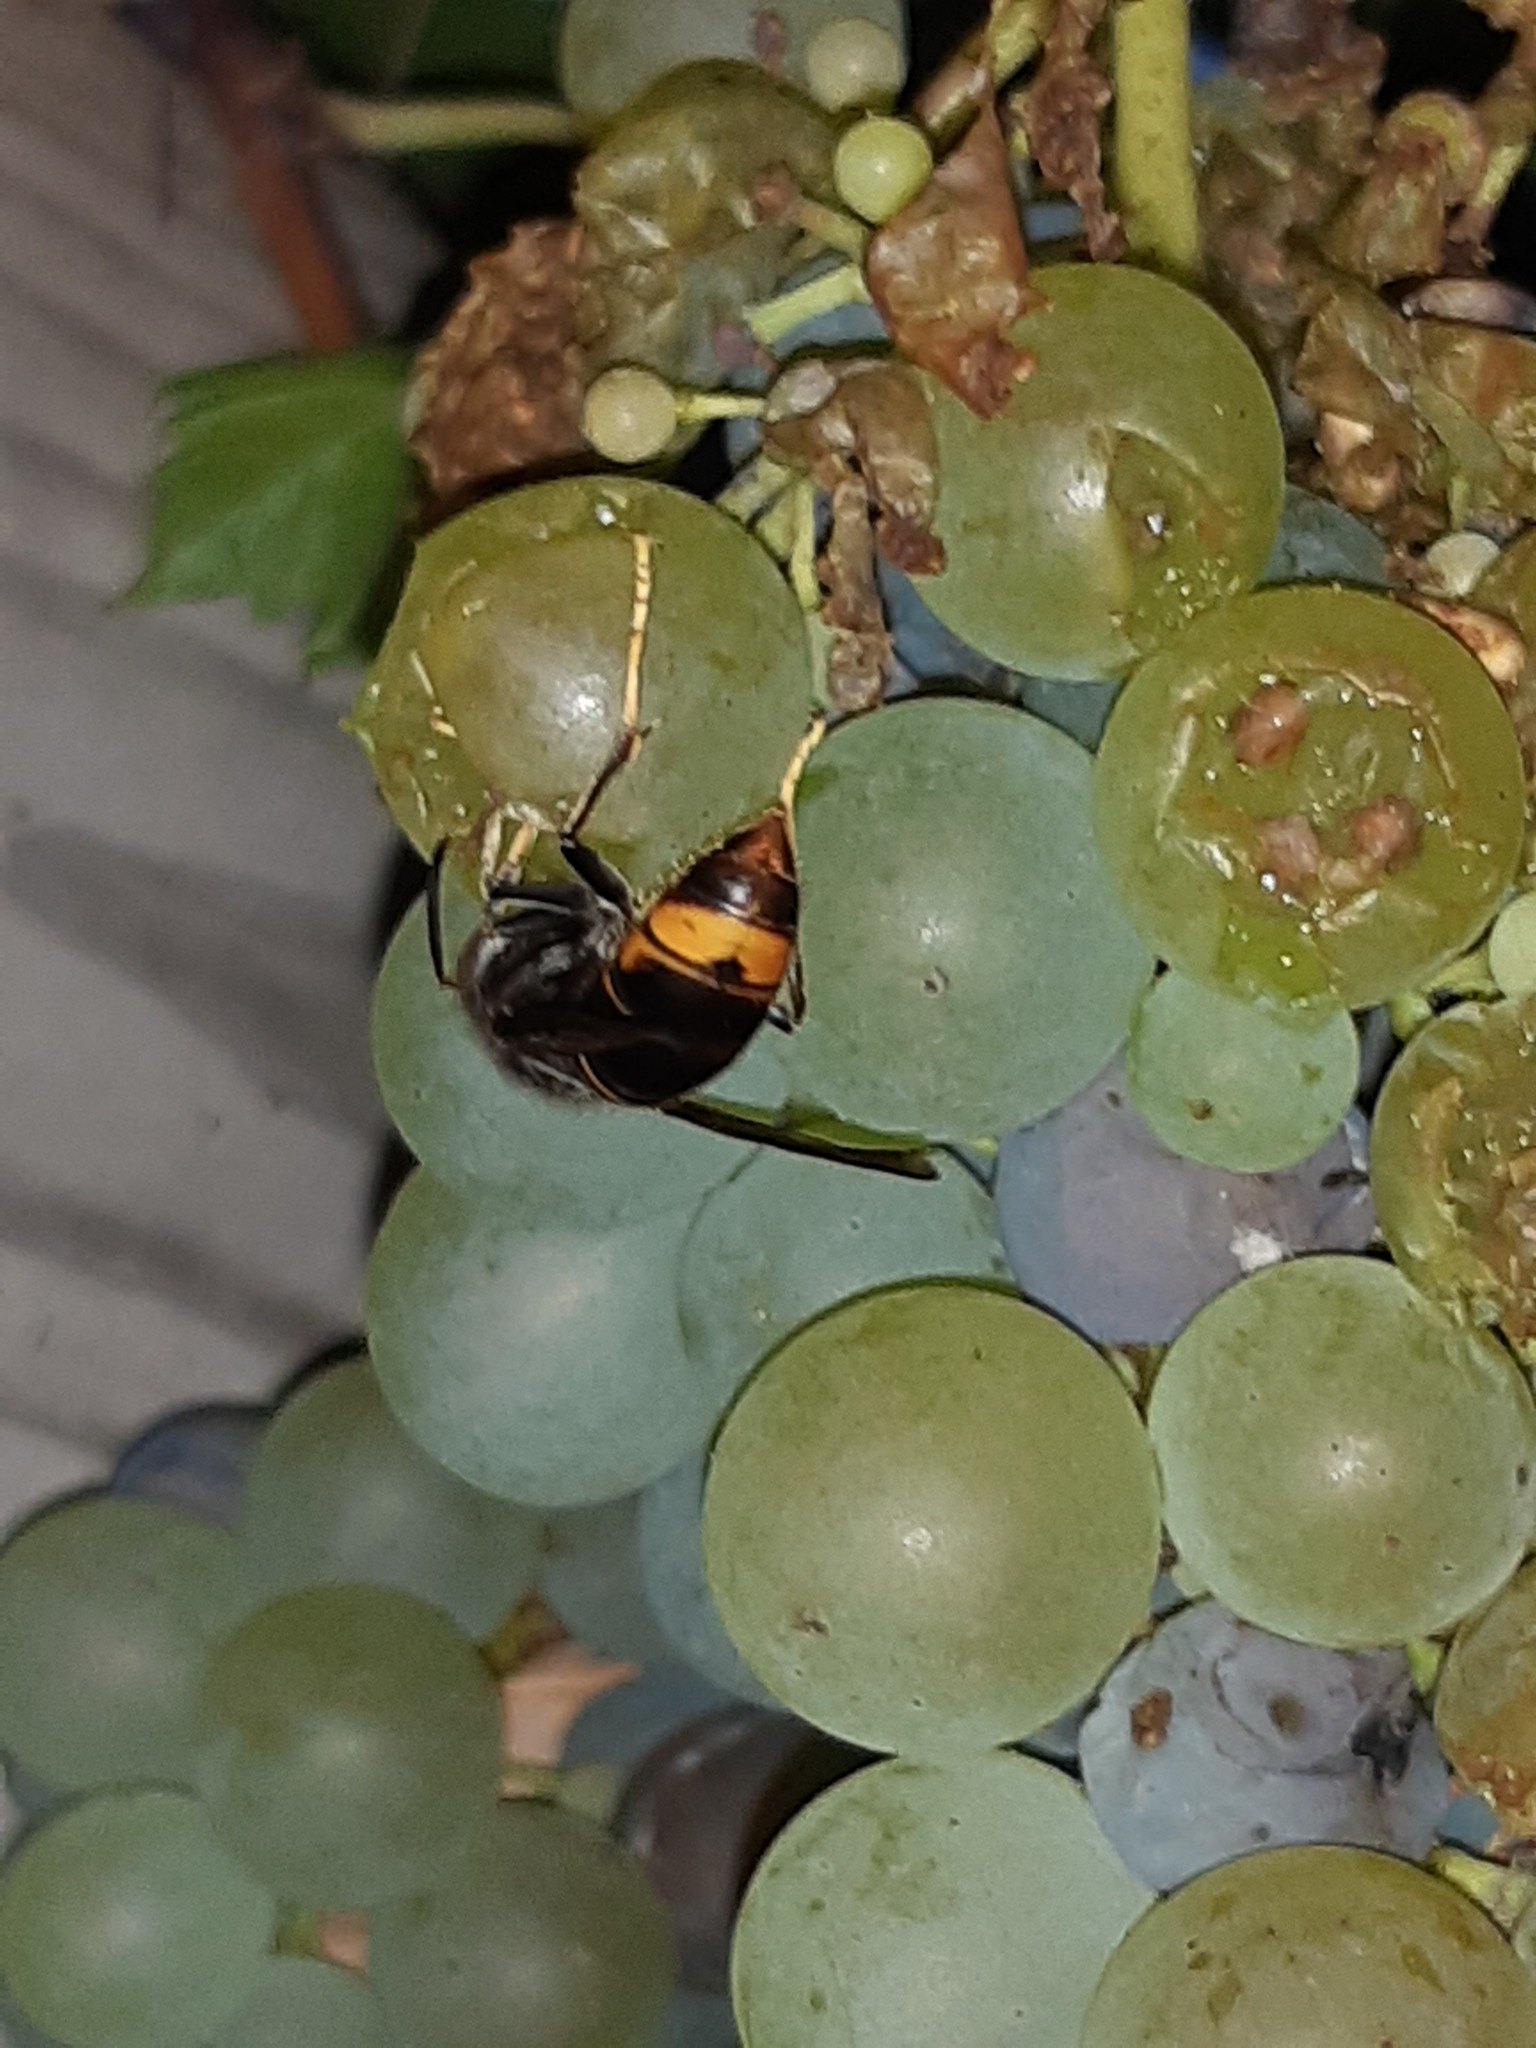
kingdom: Animalia
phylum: Arthropoda
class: Insecta
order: Hymenoptera
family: Vespidae
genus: Vespa
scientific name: Vespa velutina
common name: Asian hornet
